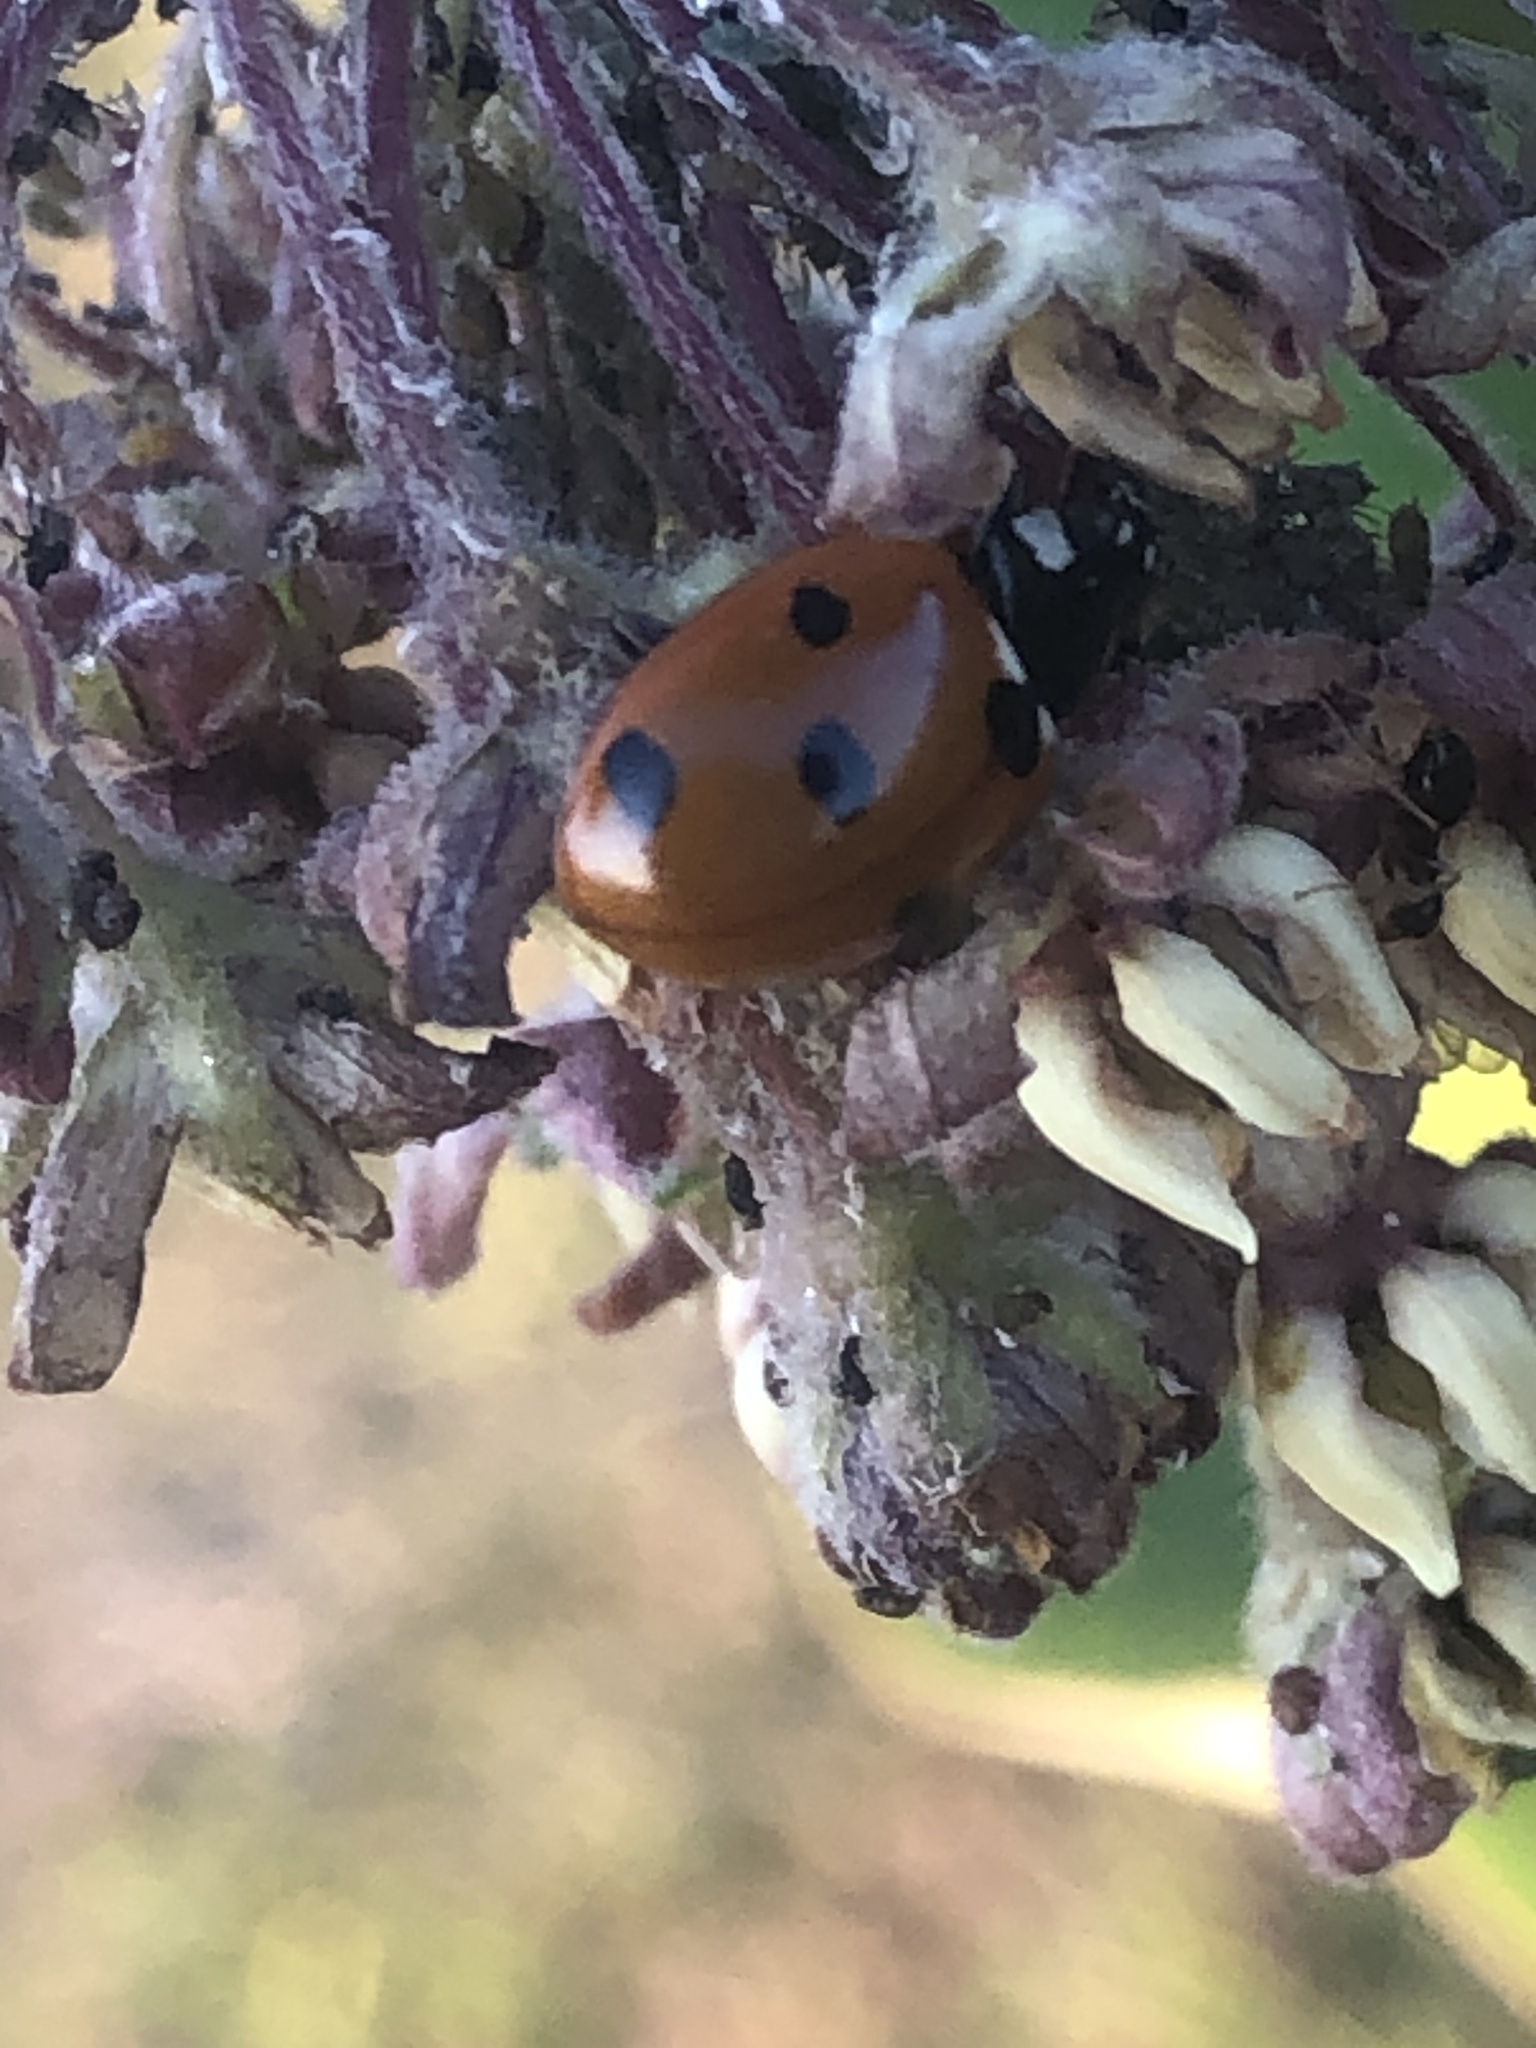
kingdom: Animalia
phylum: Arthropoda
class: Insecta
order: Coleoptera
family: Coccinellidae
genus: Coccinella
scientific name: Coccinella septempunctata
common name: Sevenspotted lady beetle
